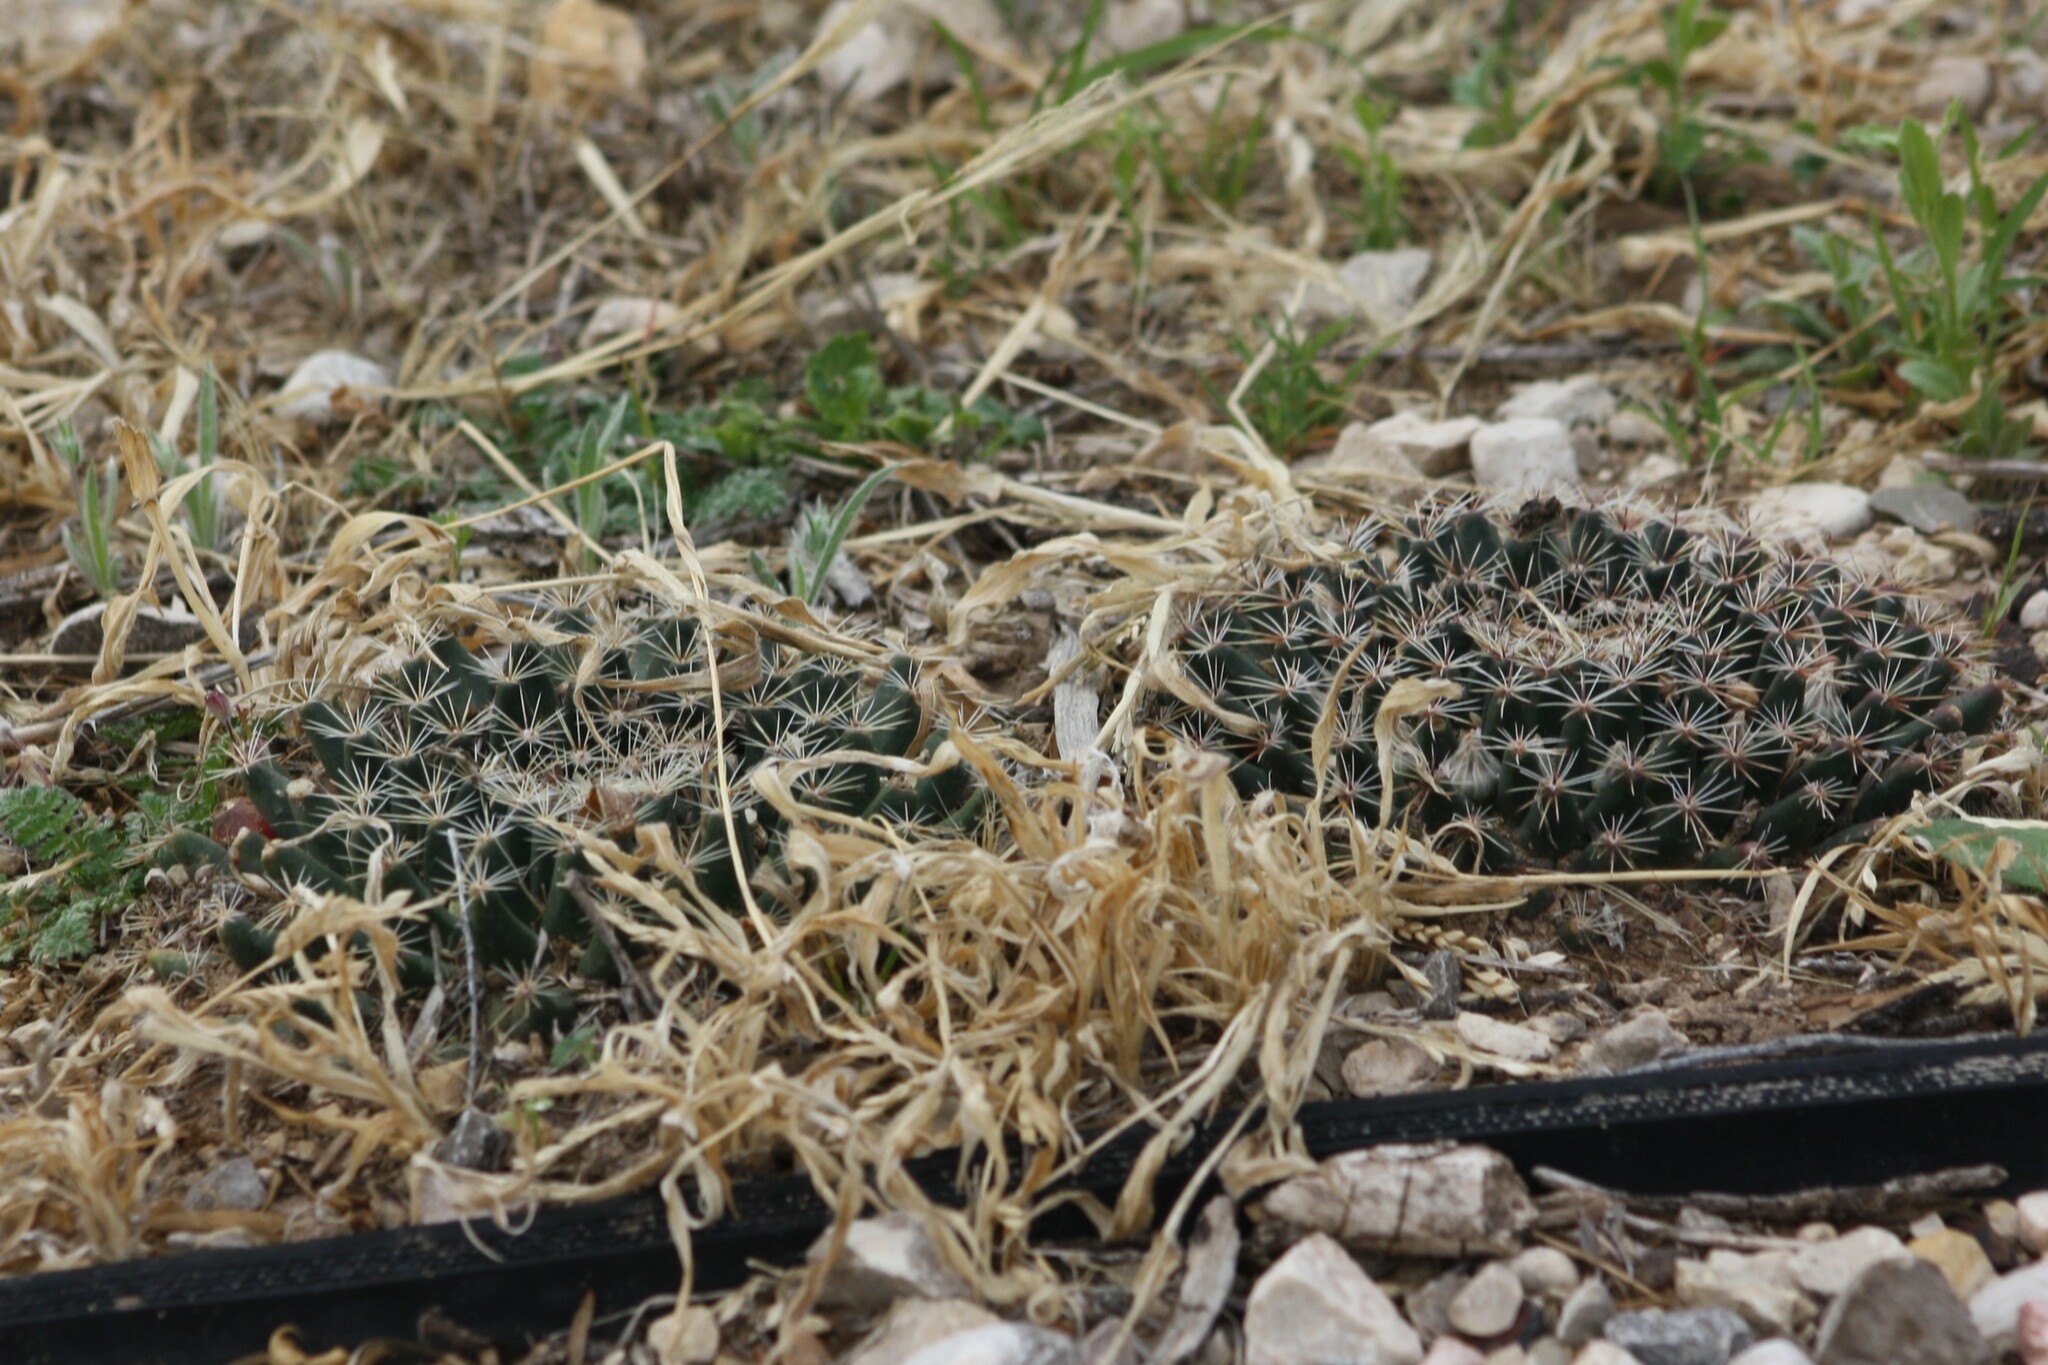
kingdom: Plantae
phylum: Tracheophyta
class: Magnoliopsida
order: Caryophyllales
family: Cactaceae
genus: Mammillaria
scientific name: Mammillaria heyderi
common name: Little nipple cactus
